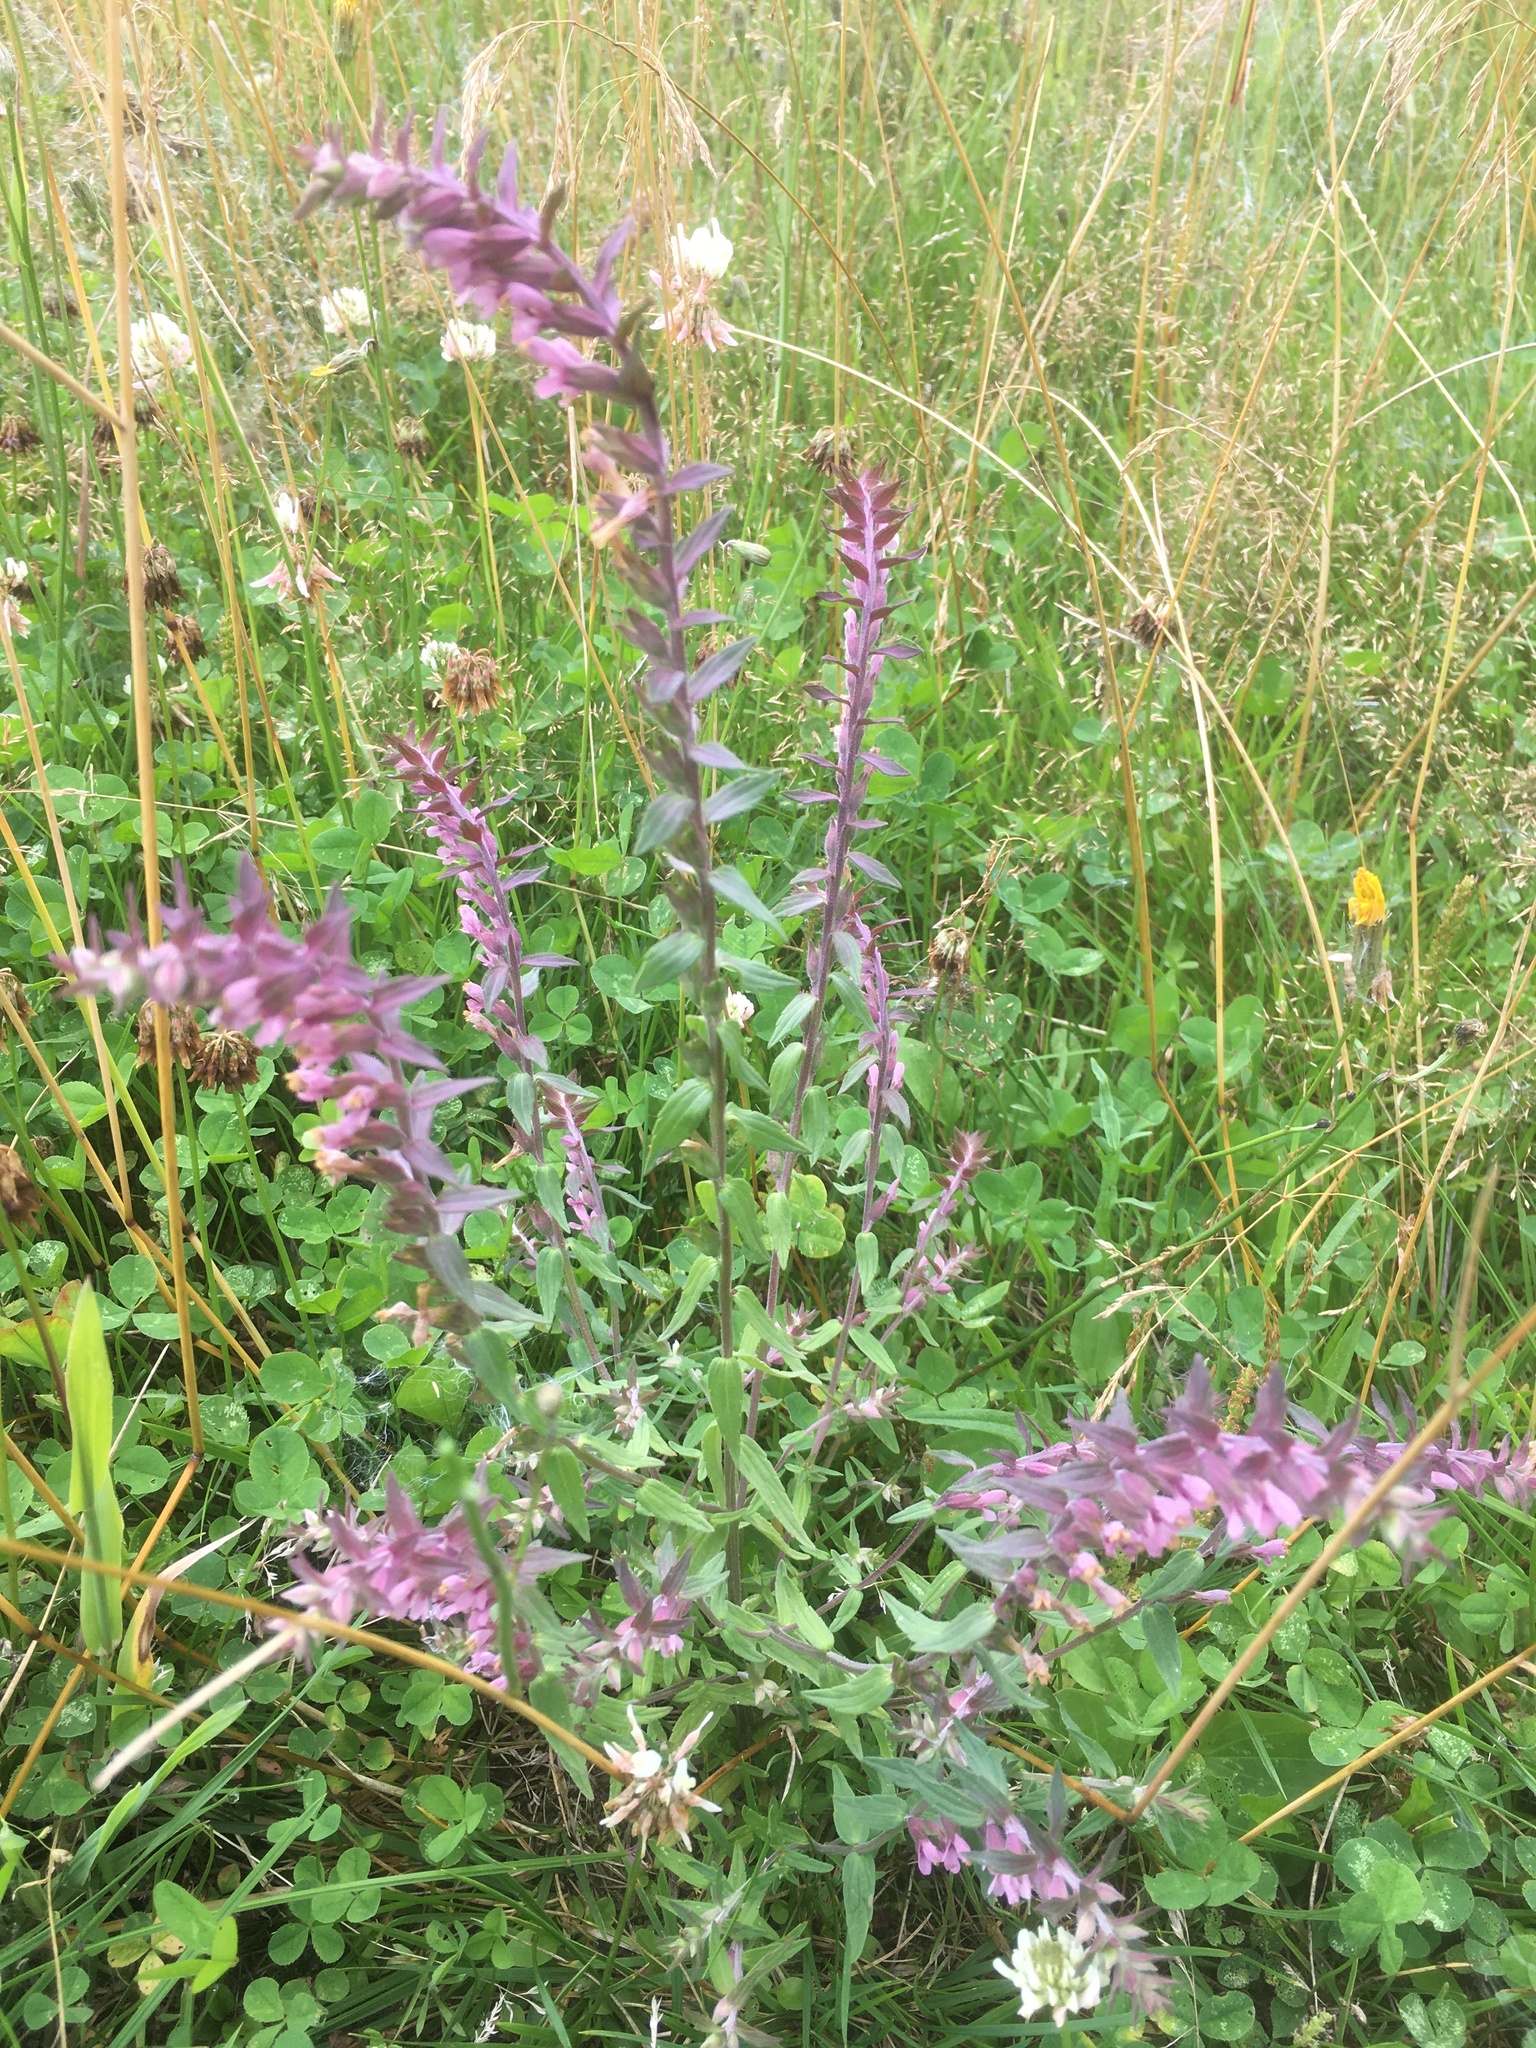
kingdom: Plantae
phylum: Tracheophyta
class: Magnoliopsida
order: Lamiales
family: Orobanchaceae
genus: Odontites
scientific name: Odontites vulgaris
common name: Broomrape
